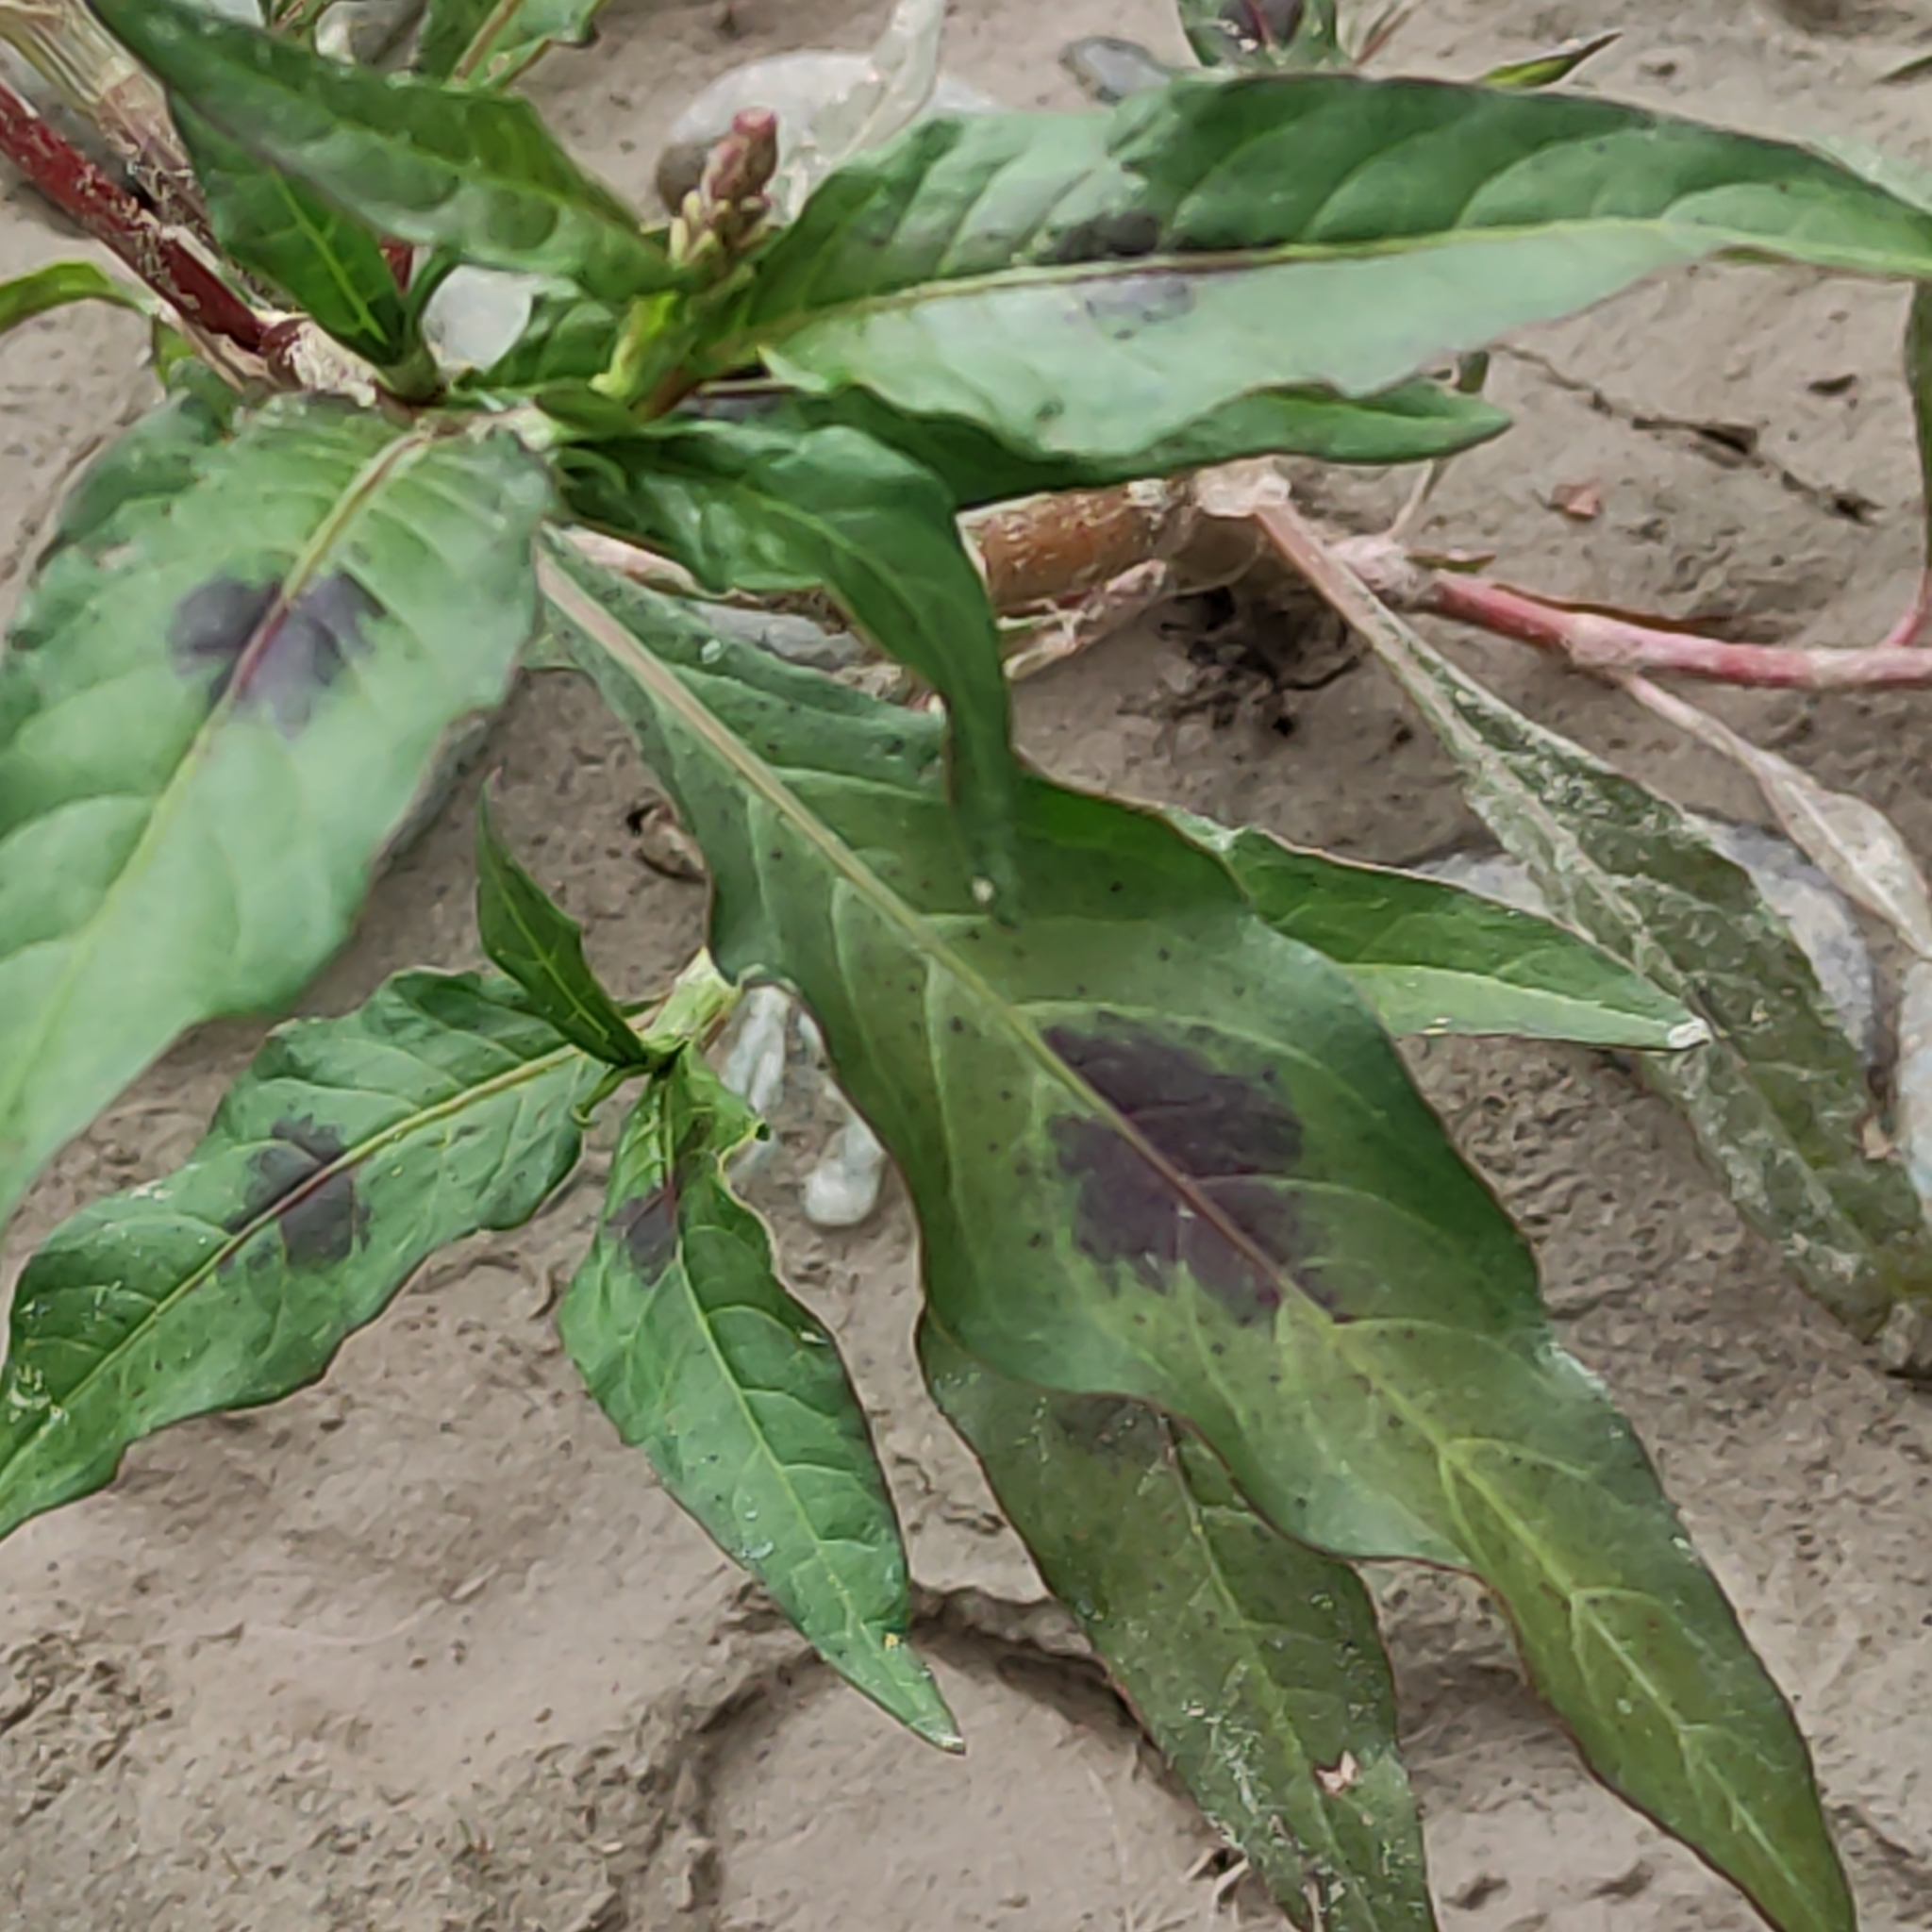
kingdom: Plantae
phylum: Tracheophyta
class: Magnoliopsida
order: Caryophyllales
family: Polygonaceae
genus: Persicaria
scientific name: Persicaria maculosa
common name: Redshank
